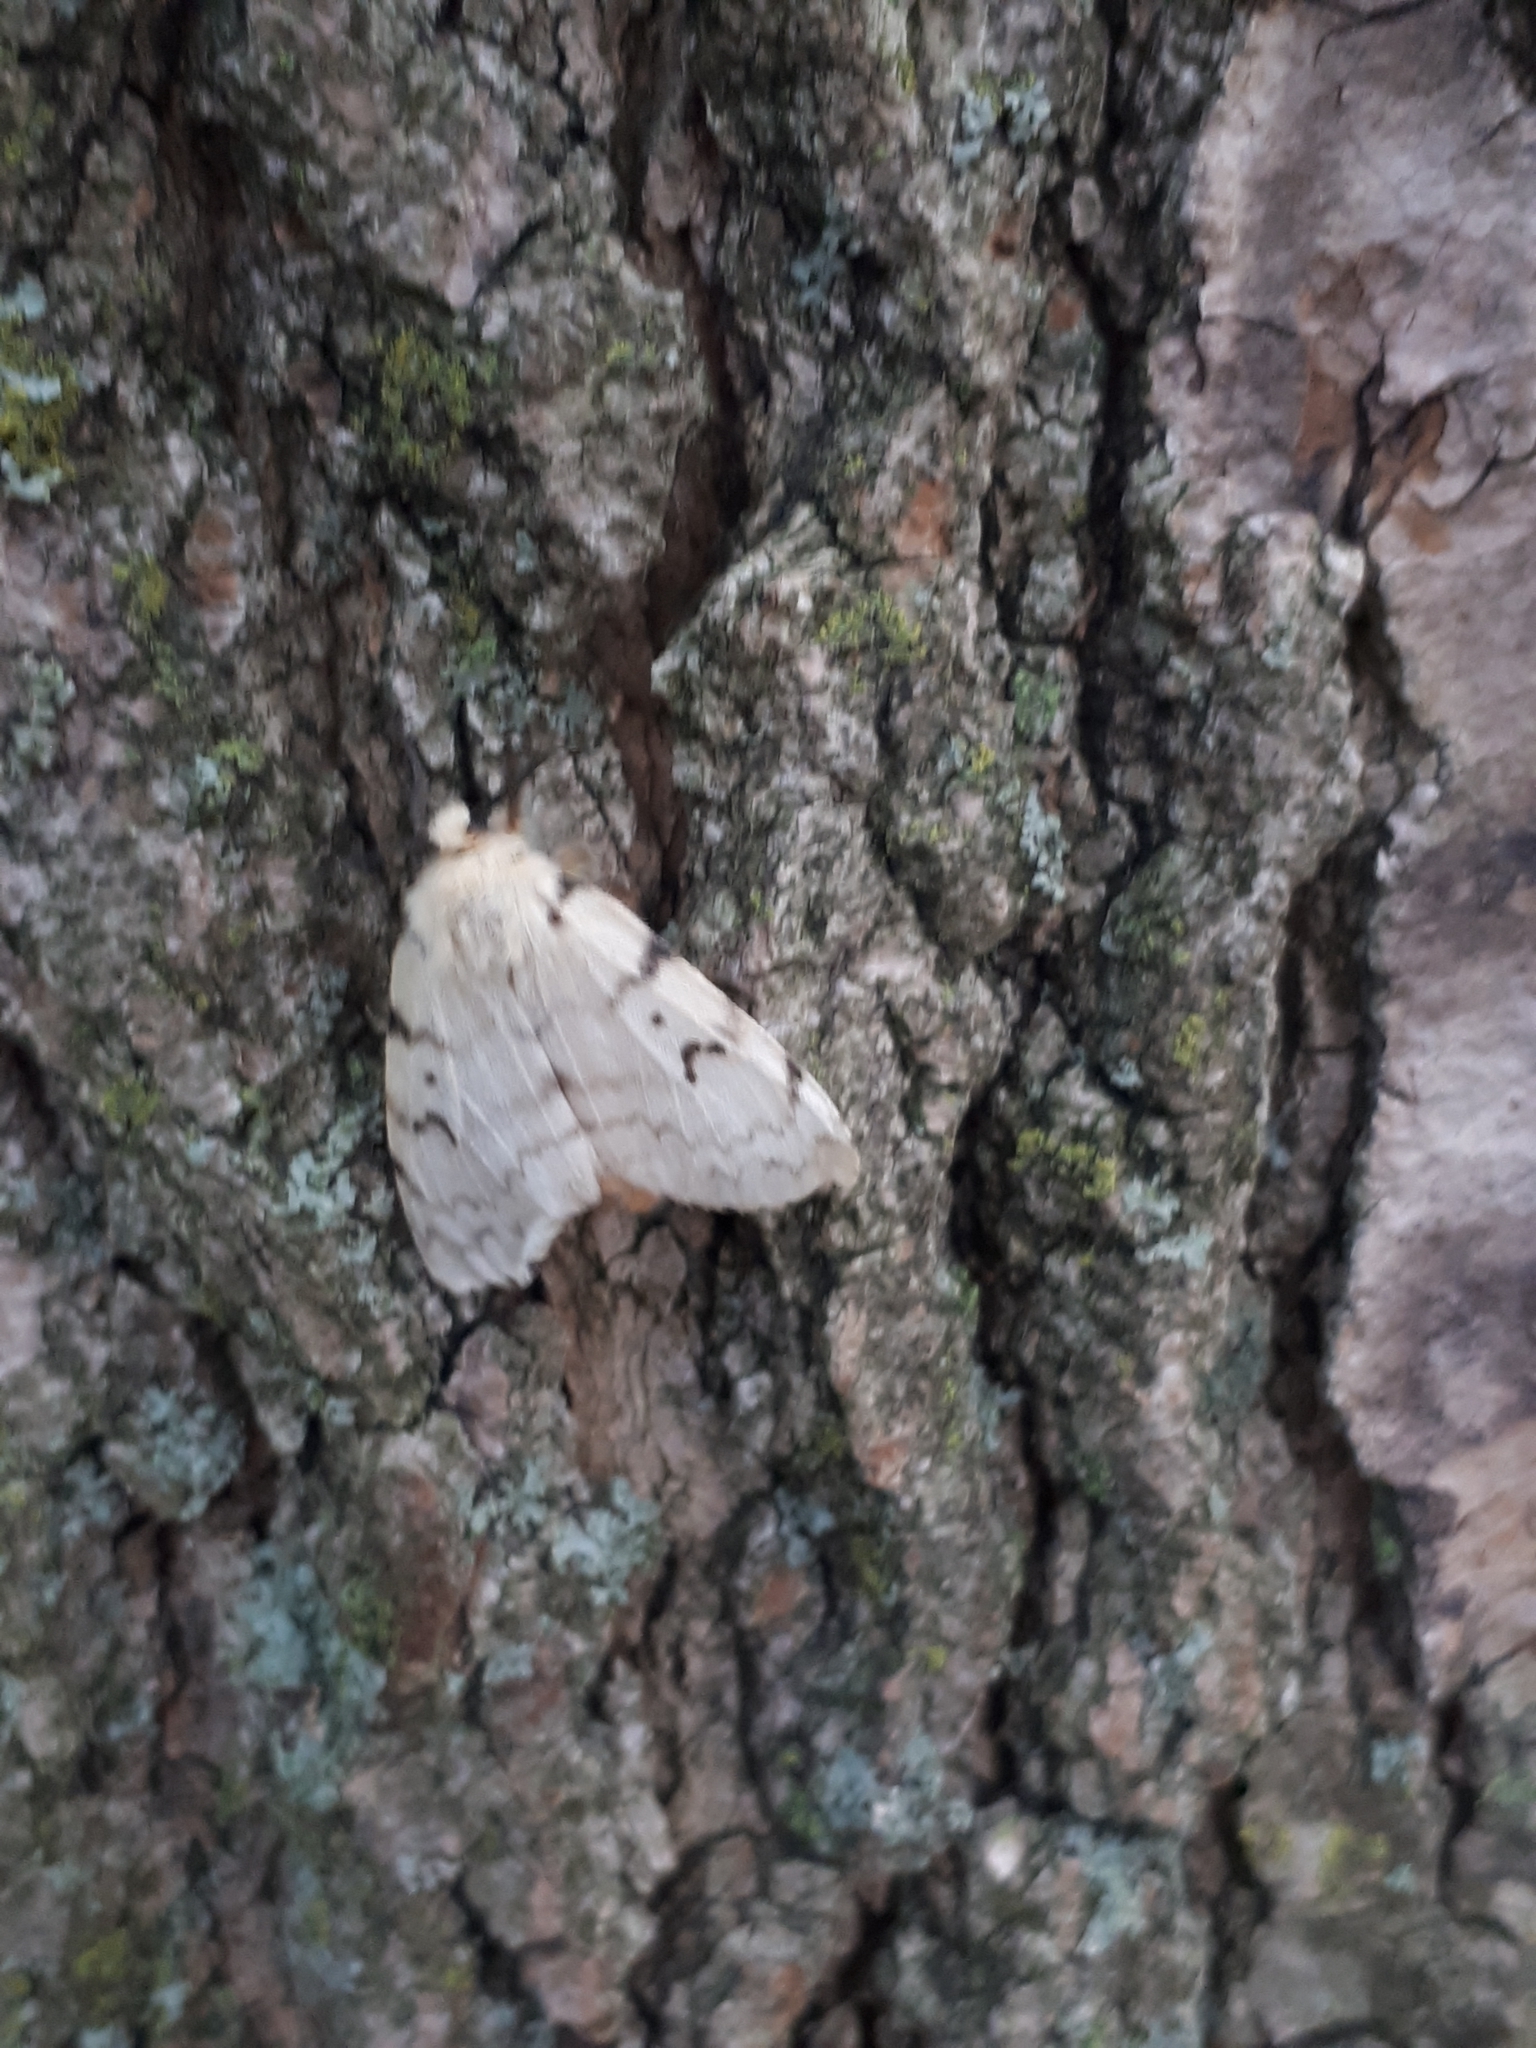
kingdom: Animalia
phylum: Arthropoda
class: Insecta
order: Lepidoptera
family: Erebidae
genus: Lymantria
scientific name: Lymantria dispar
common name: Gypsy moth
